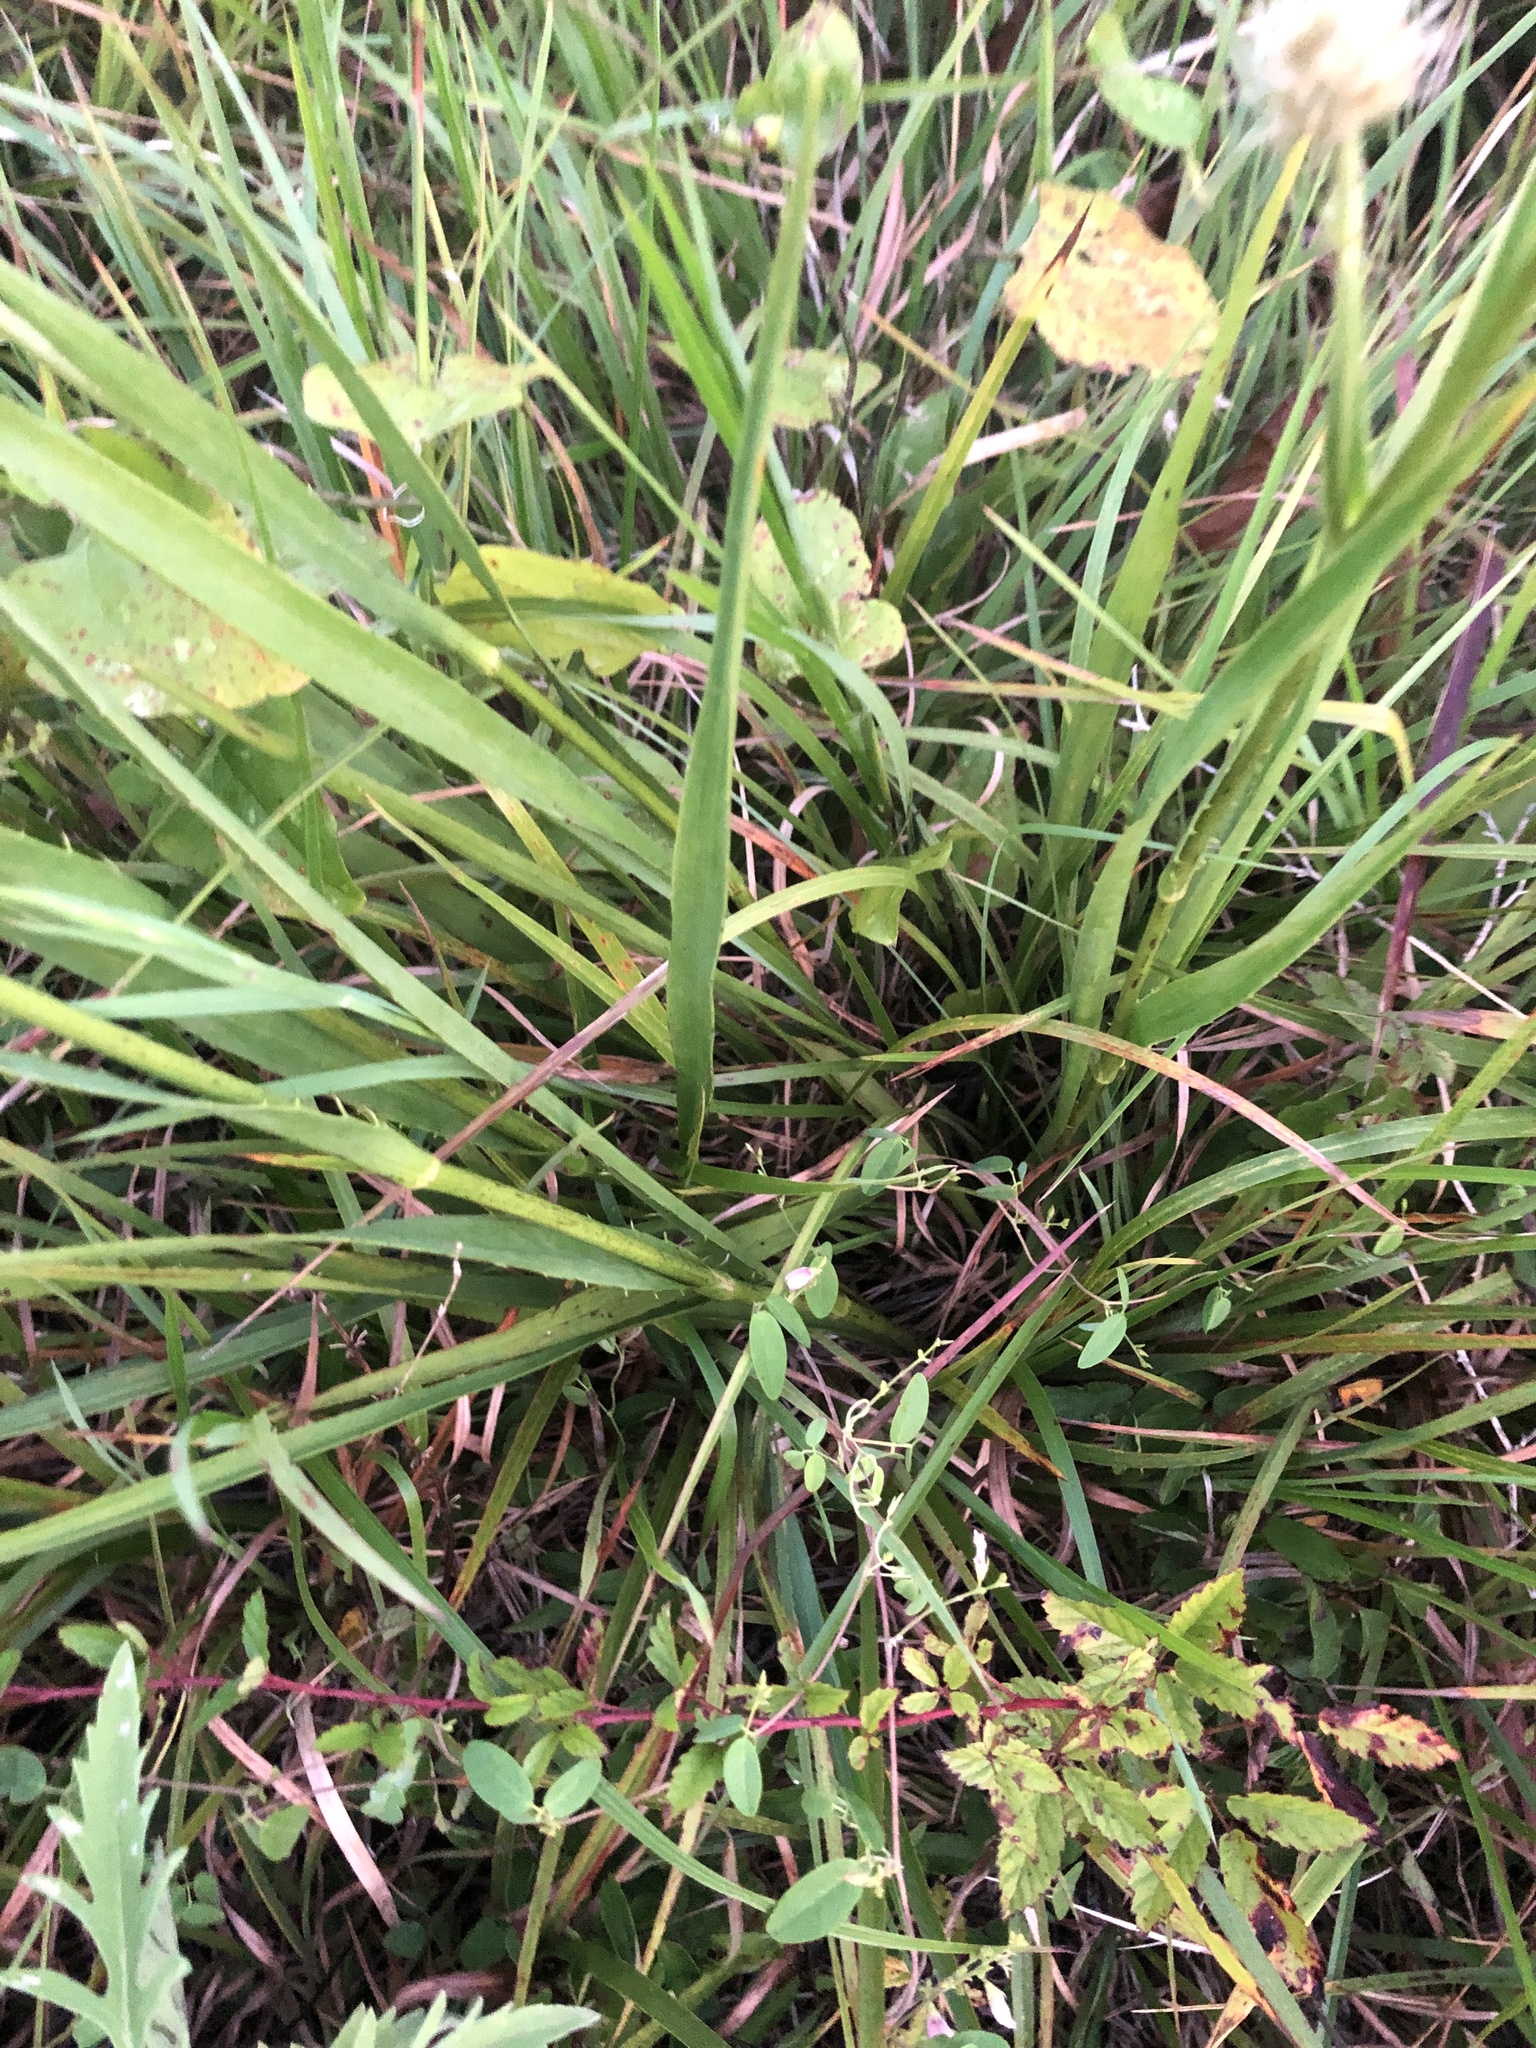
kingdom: Plantae
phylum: Tracheophyta
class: Magnoliopsida
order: Apiales
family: Apiaceae
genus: Eryngium
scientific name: Eryngium yuccifolium
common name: Button eryngo
